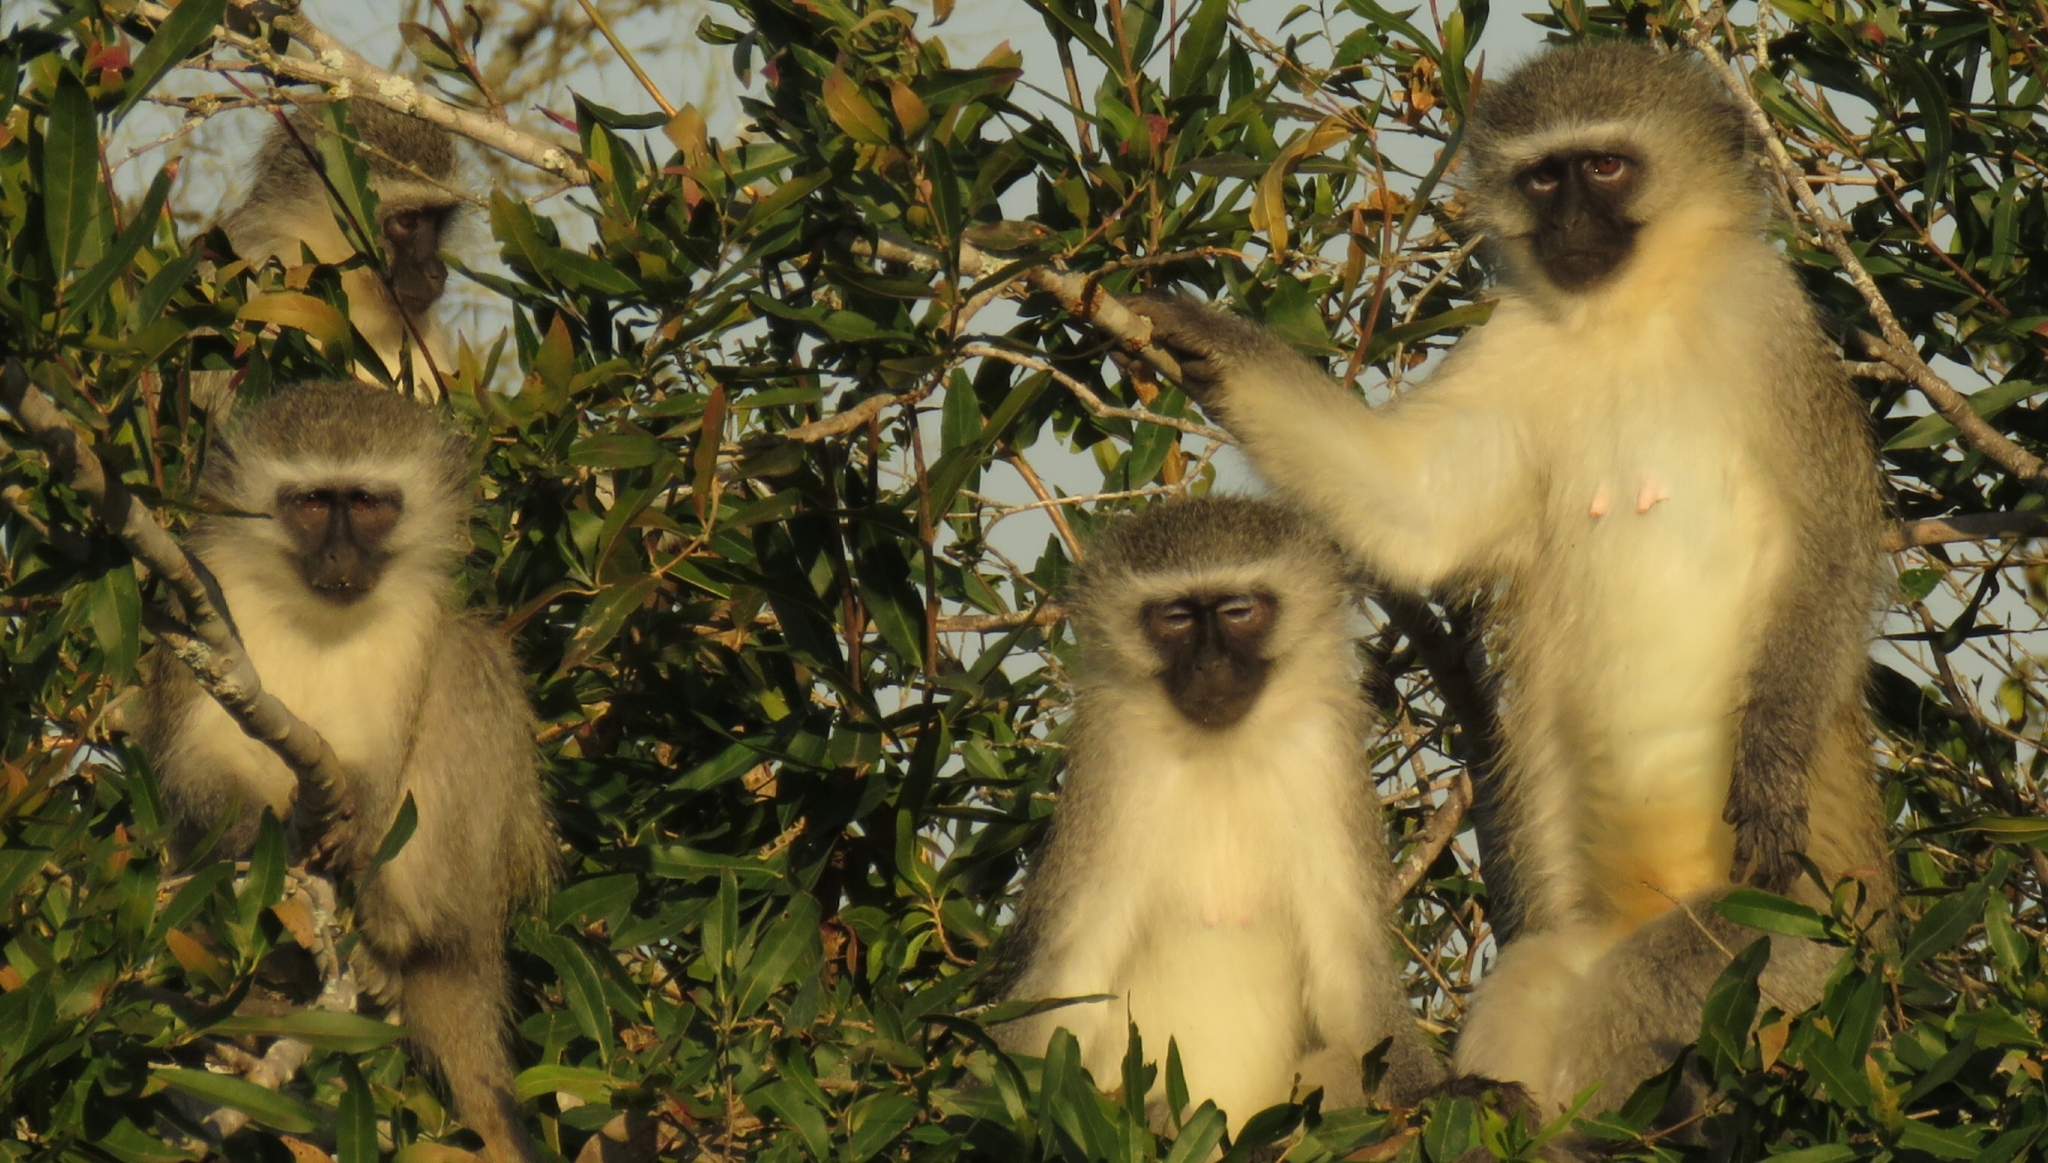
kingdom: Animalia
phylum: Chordata
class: Mammalia
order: Primates
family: Cercopithecidae
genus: Chlorocebus
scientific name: Chlorocebus pygerythrus
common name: Vervet monkey
